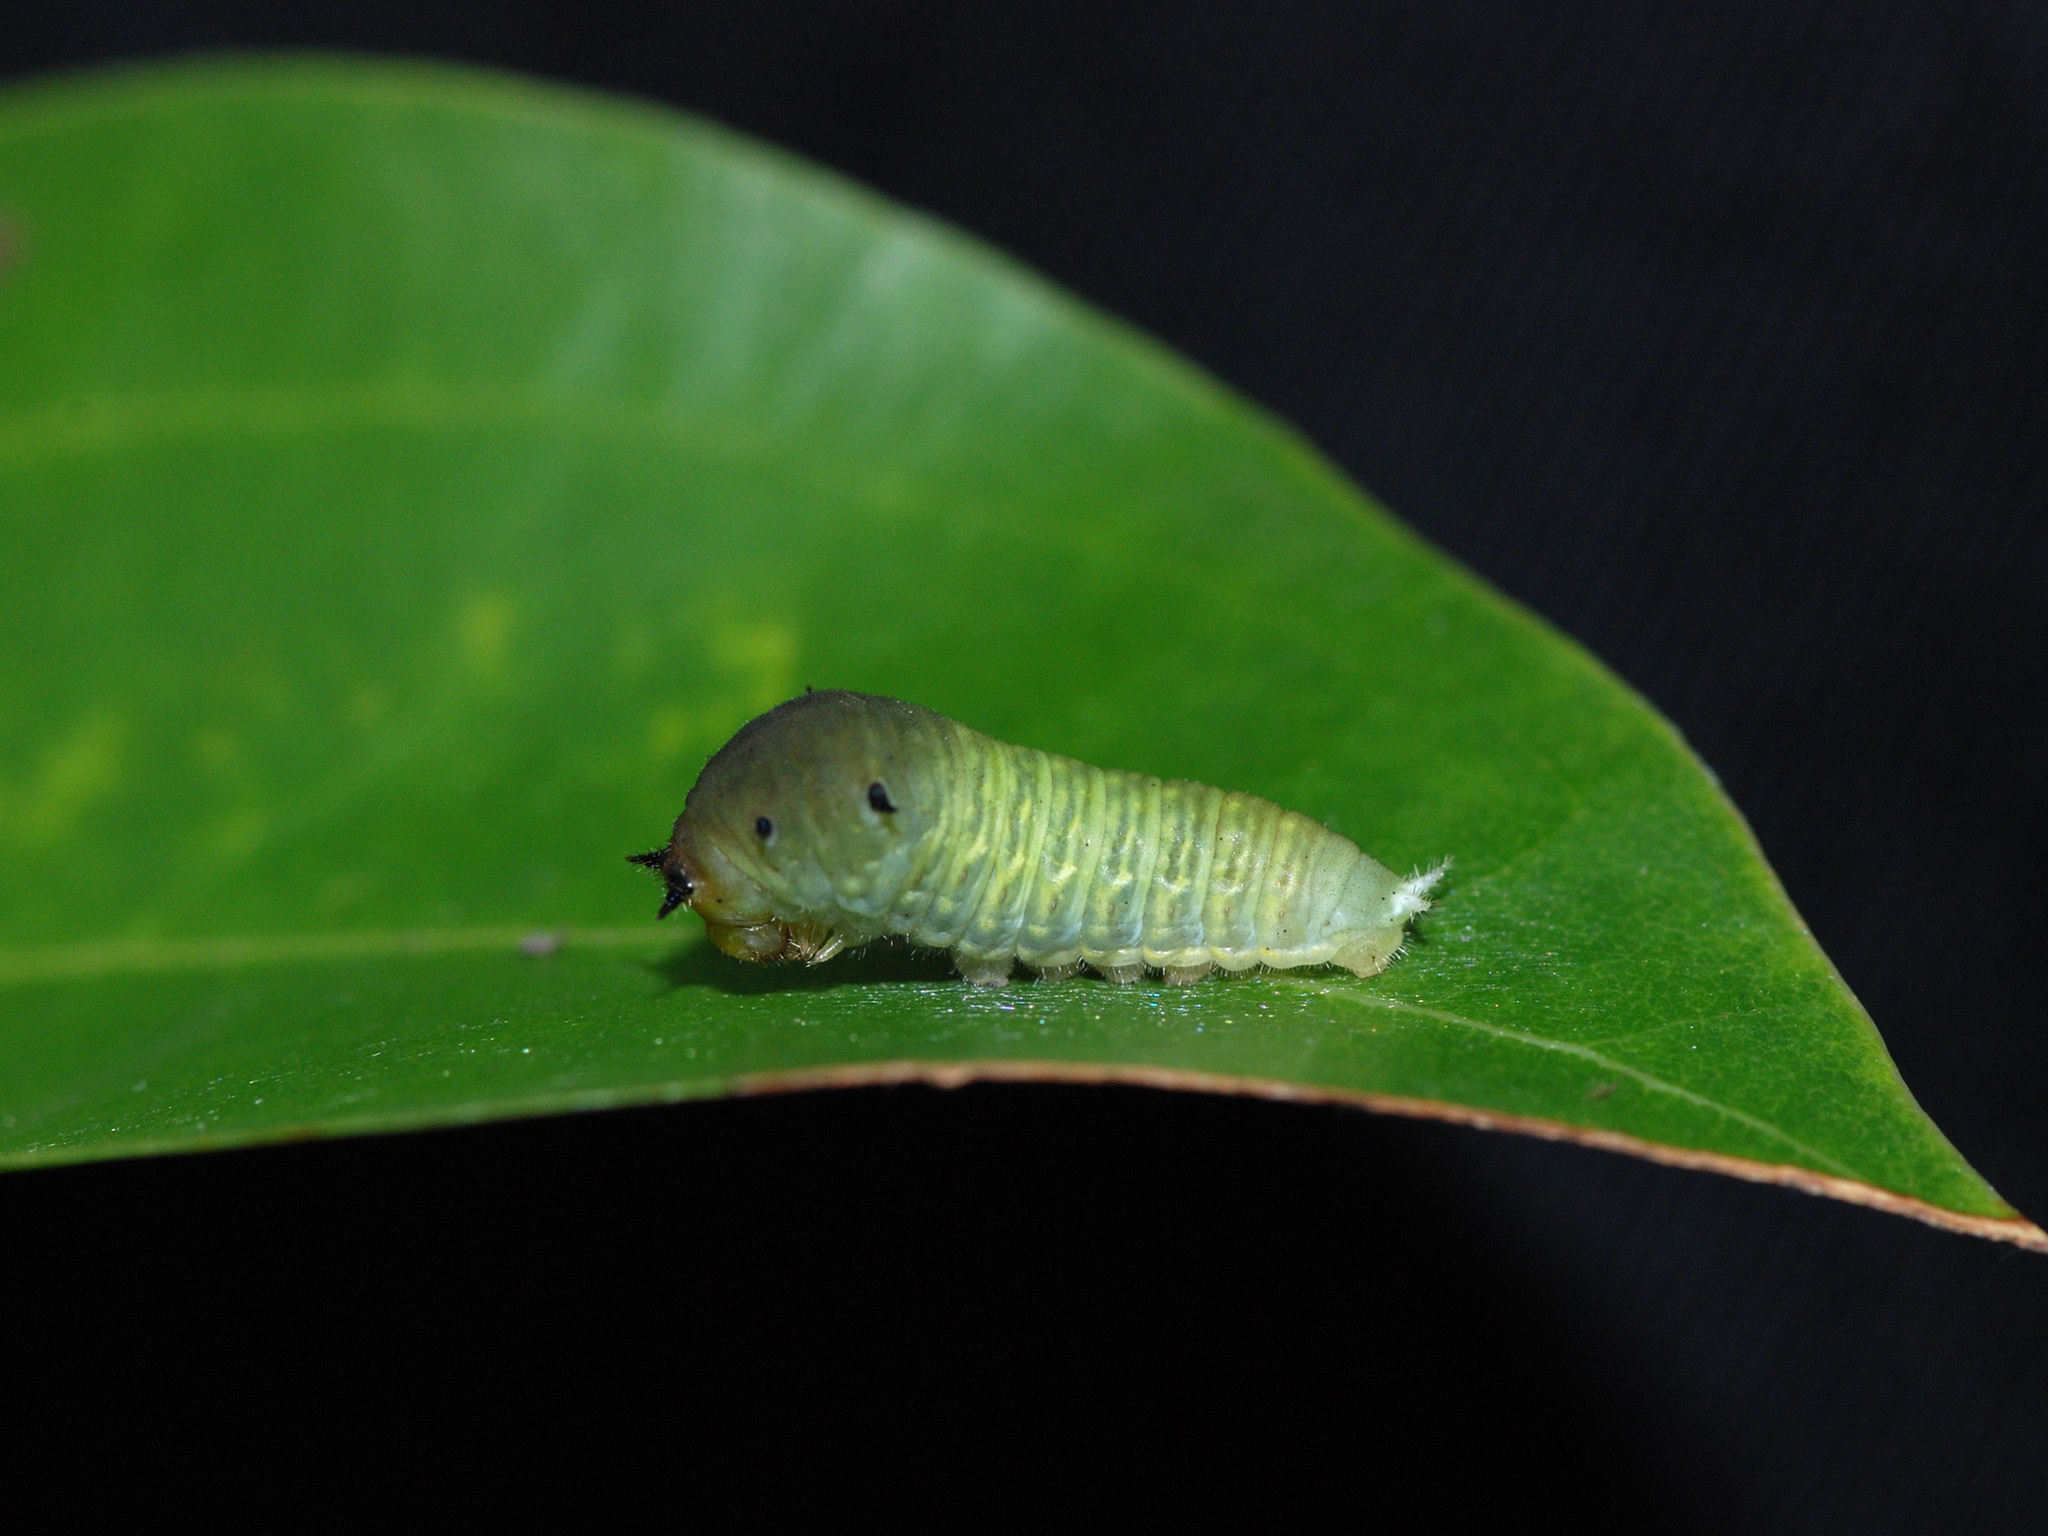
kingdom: Fungi
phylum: Ascomycota
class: Sordariomycetes
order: Microascales
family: Microascaceae
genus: Graphium
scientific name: Graphium sarpedon
